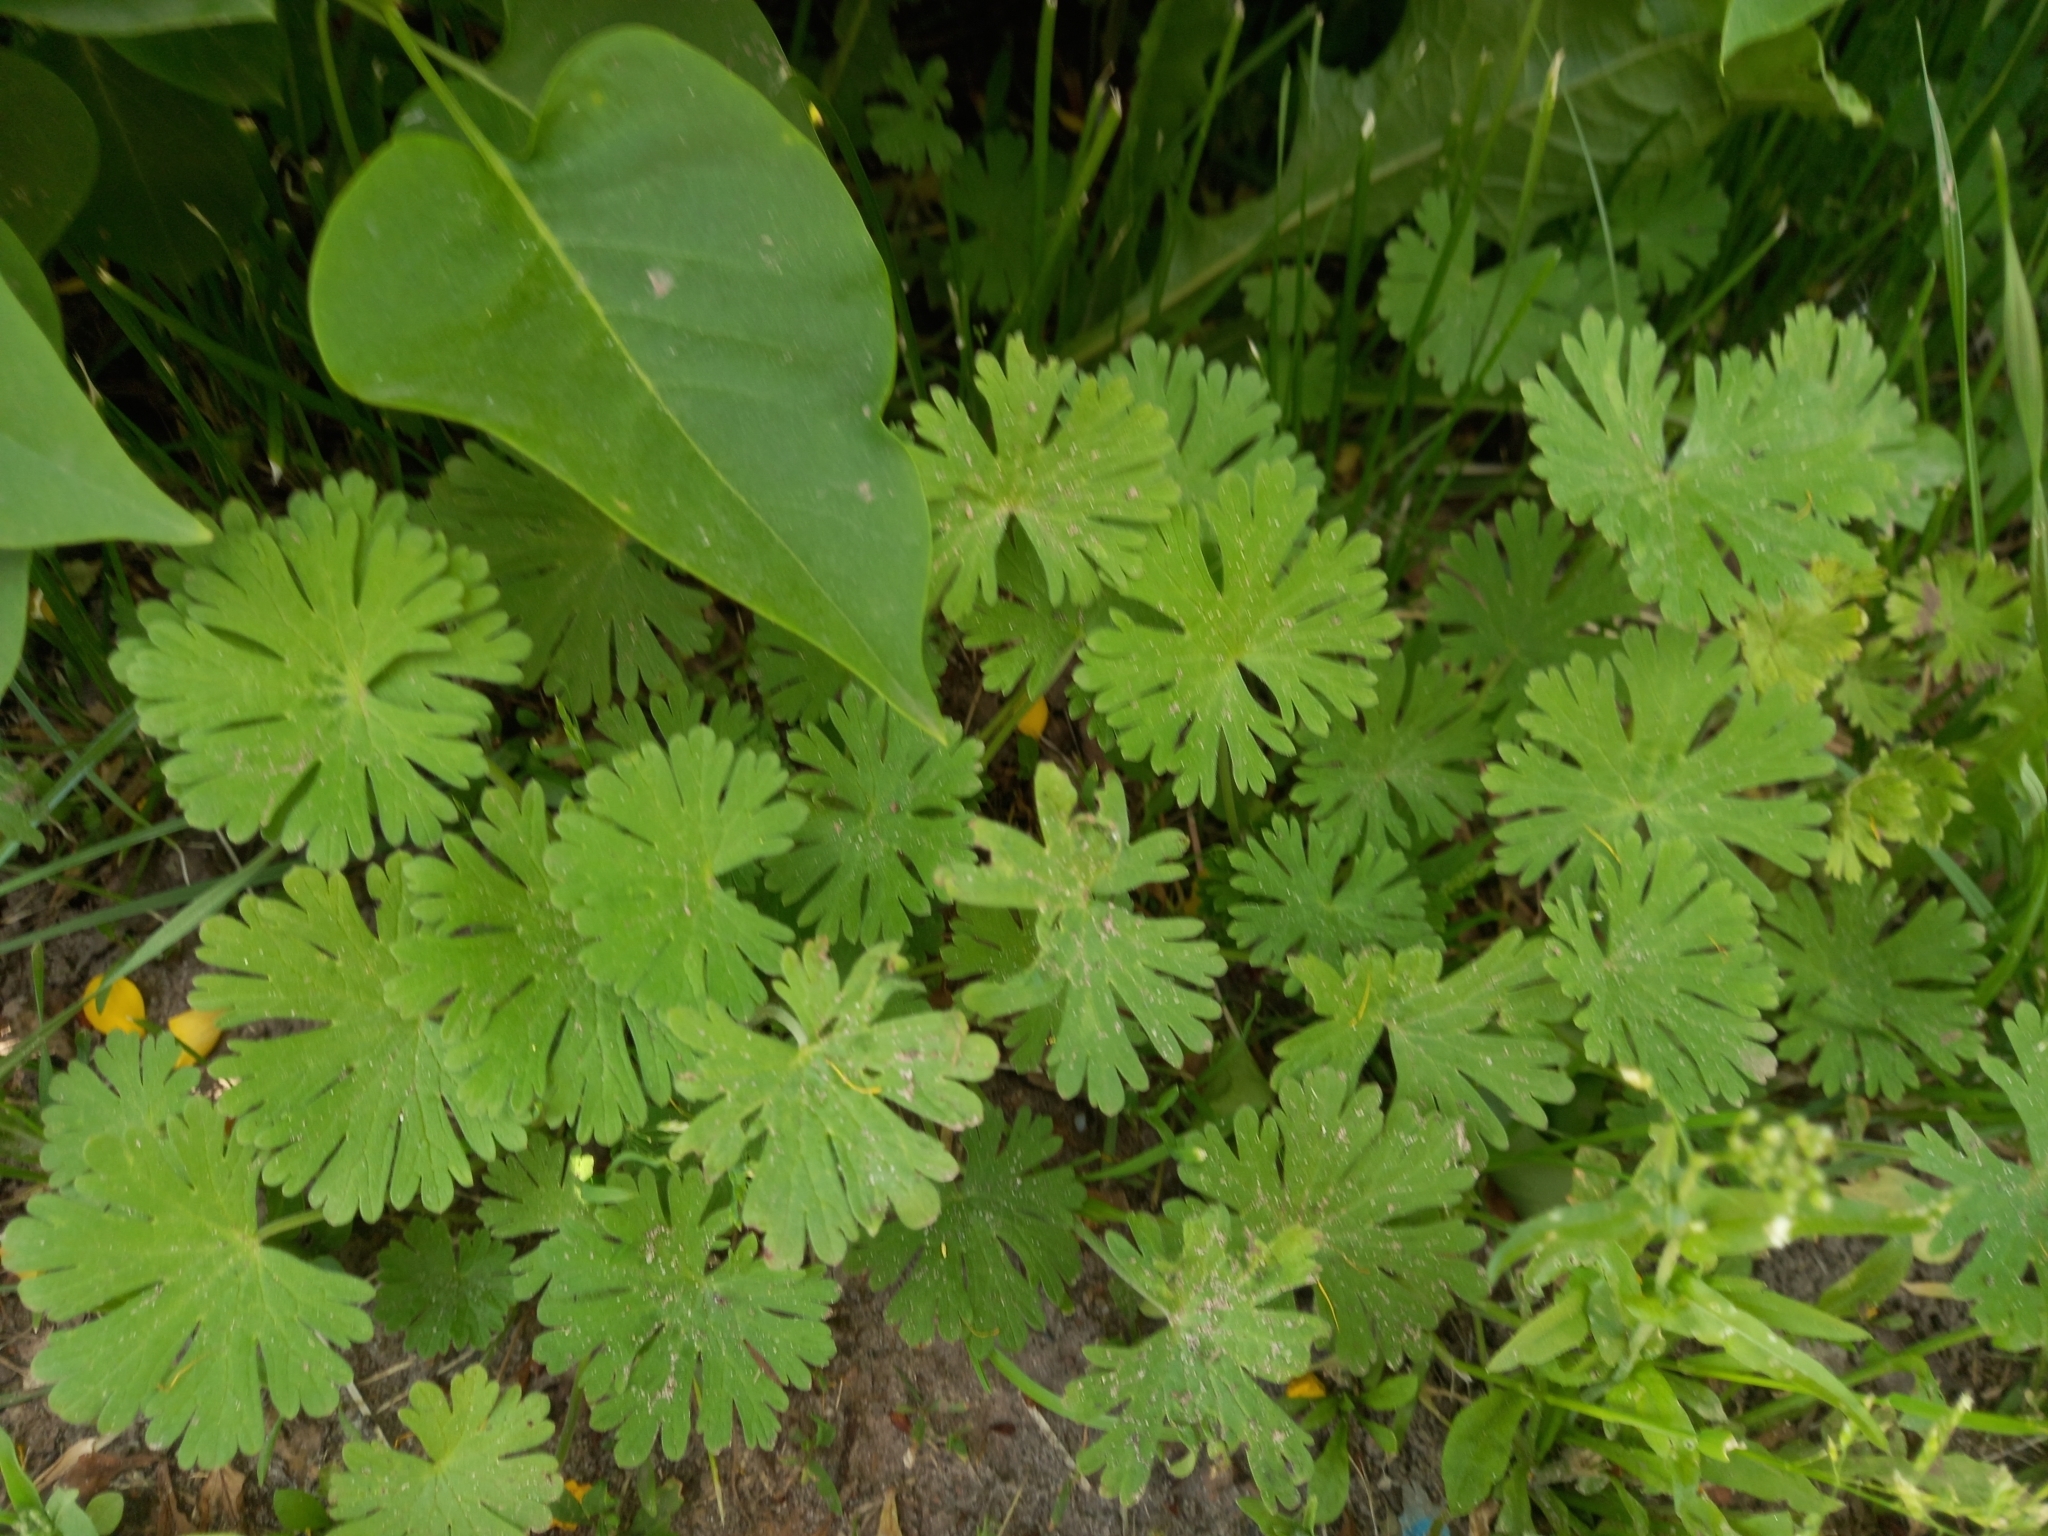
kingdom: Plantae
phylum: Tracheophyta
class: Magnoliopsida
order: Geraniales
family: Geraniaceae
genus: Geranium
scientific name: Geranium pusillum
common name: Small geranium
